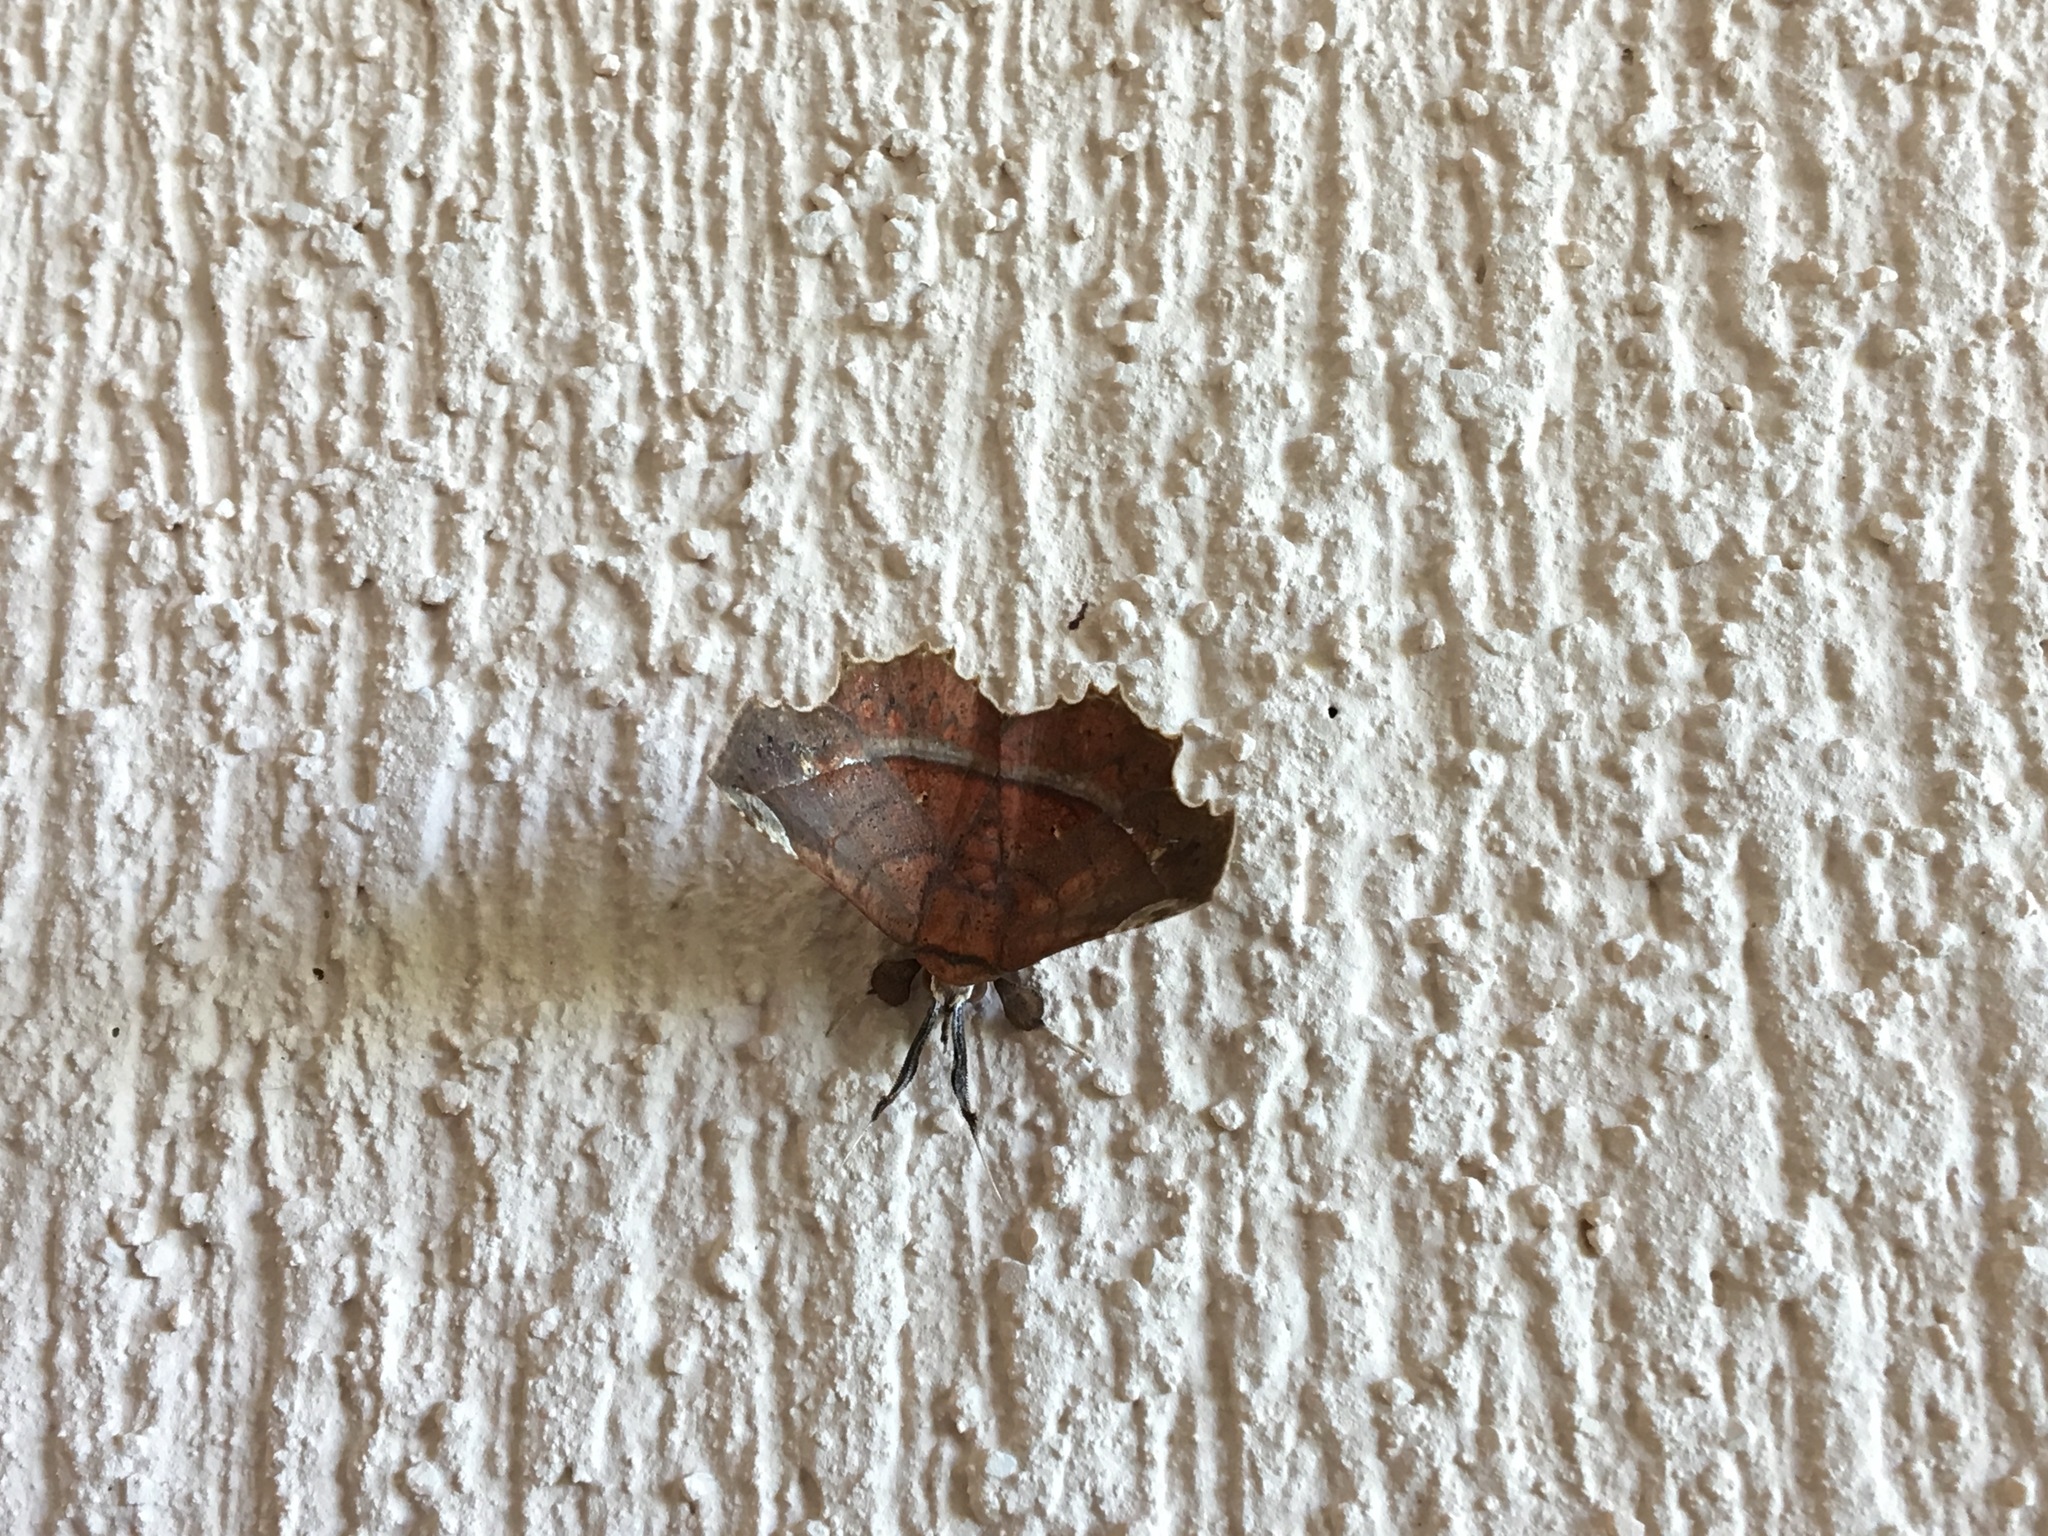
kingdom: Animalia
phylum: Arthropoda
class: Insecta
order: Lepidoptera
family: Erebidae
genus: Syllectra
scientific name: Syllectra erycata
